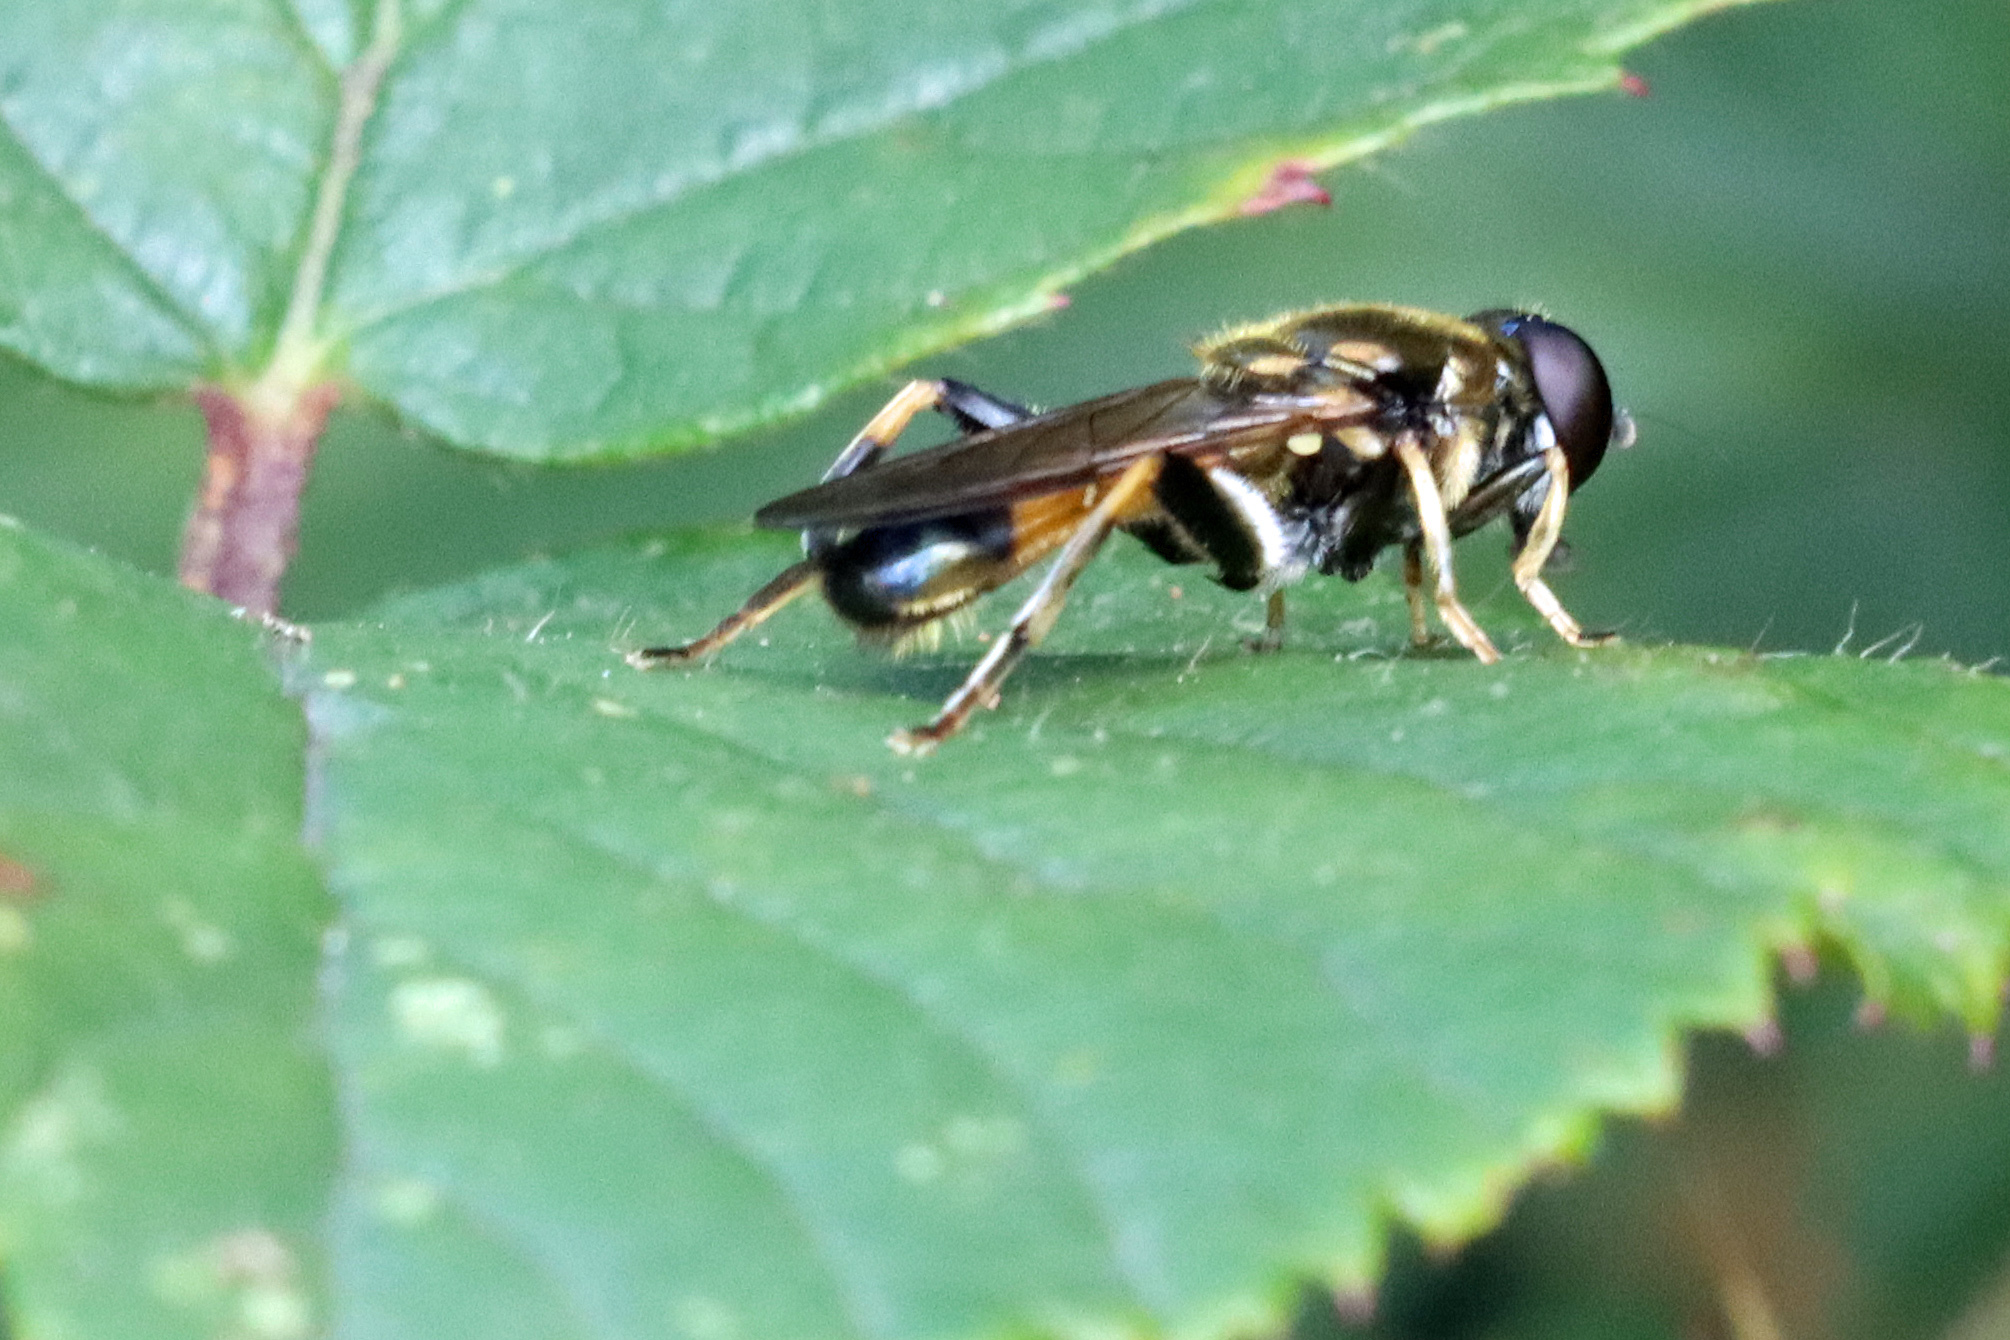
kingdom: Animalia
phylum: Arthropoda
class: Insecta
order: Diptera
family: Syrphidae
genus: Xylota
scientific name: Xylota segnis
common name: Brown-toed forest fly
